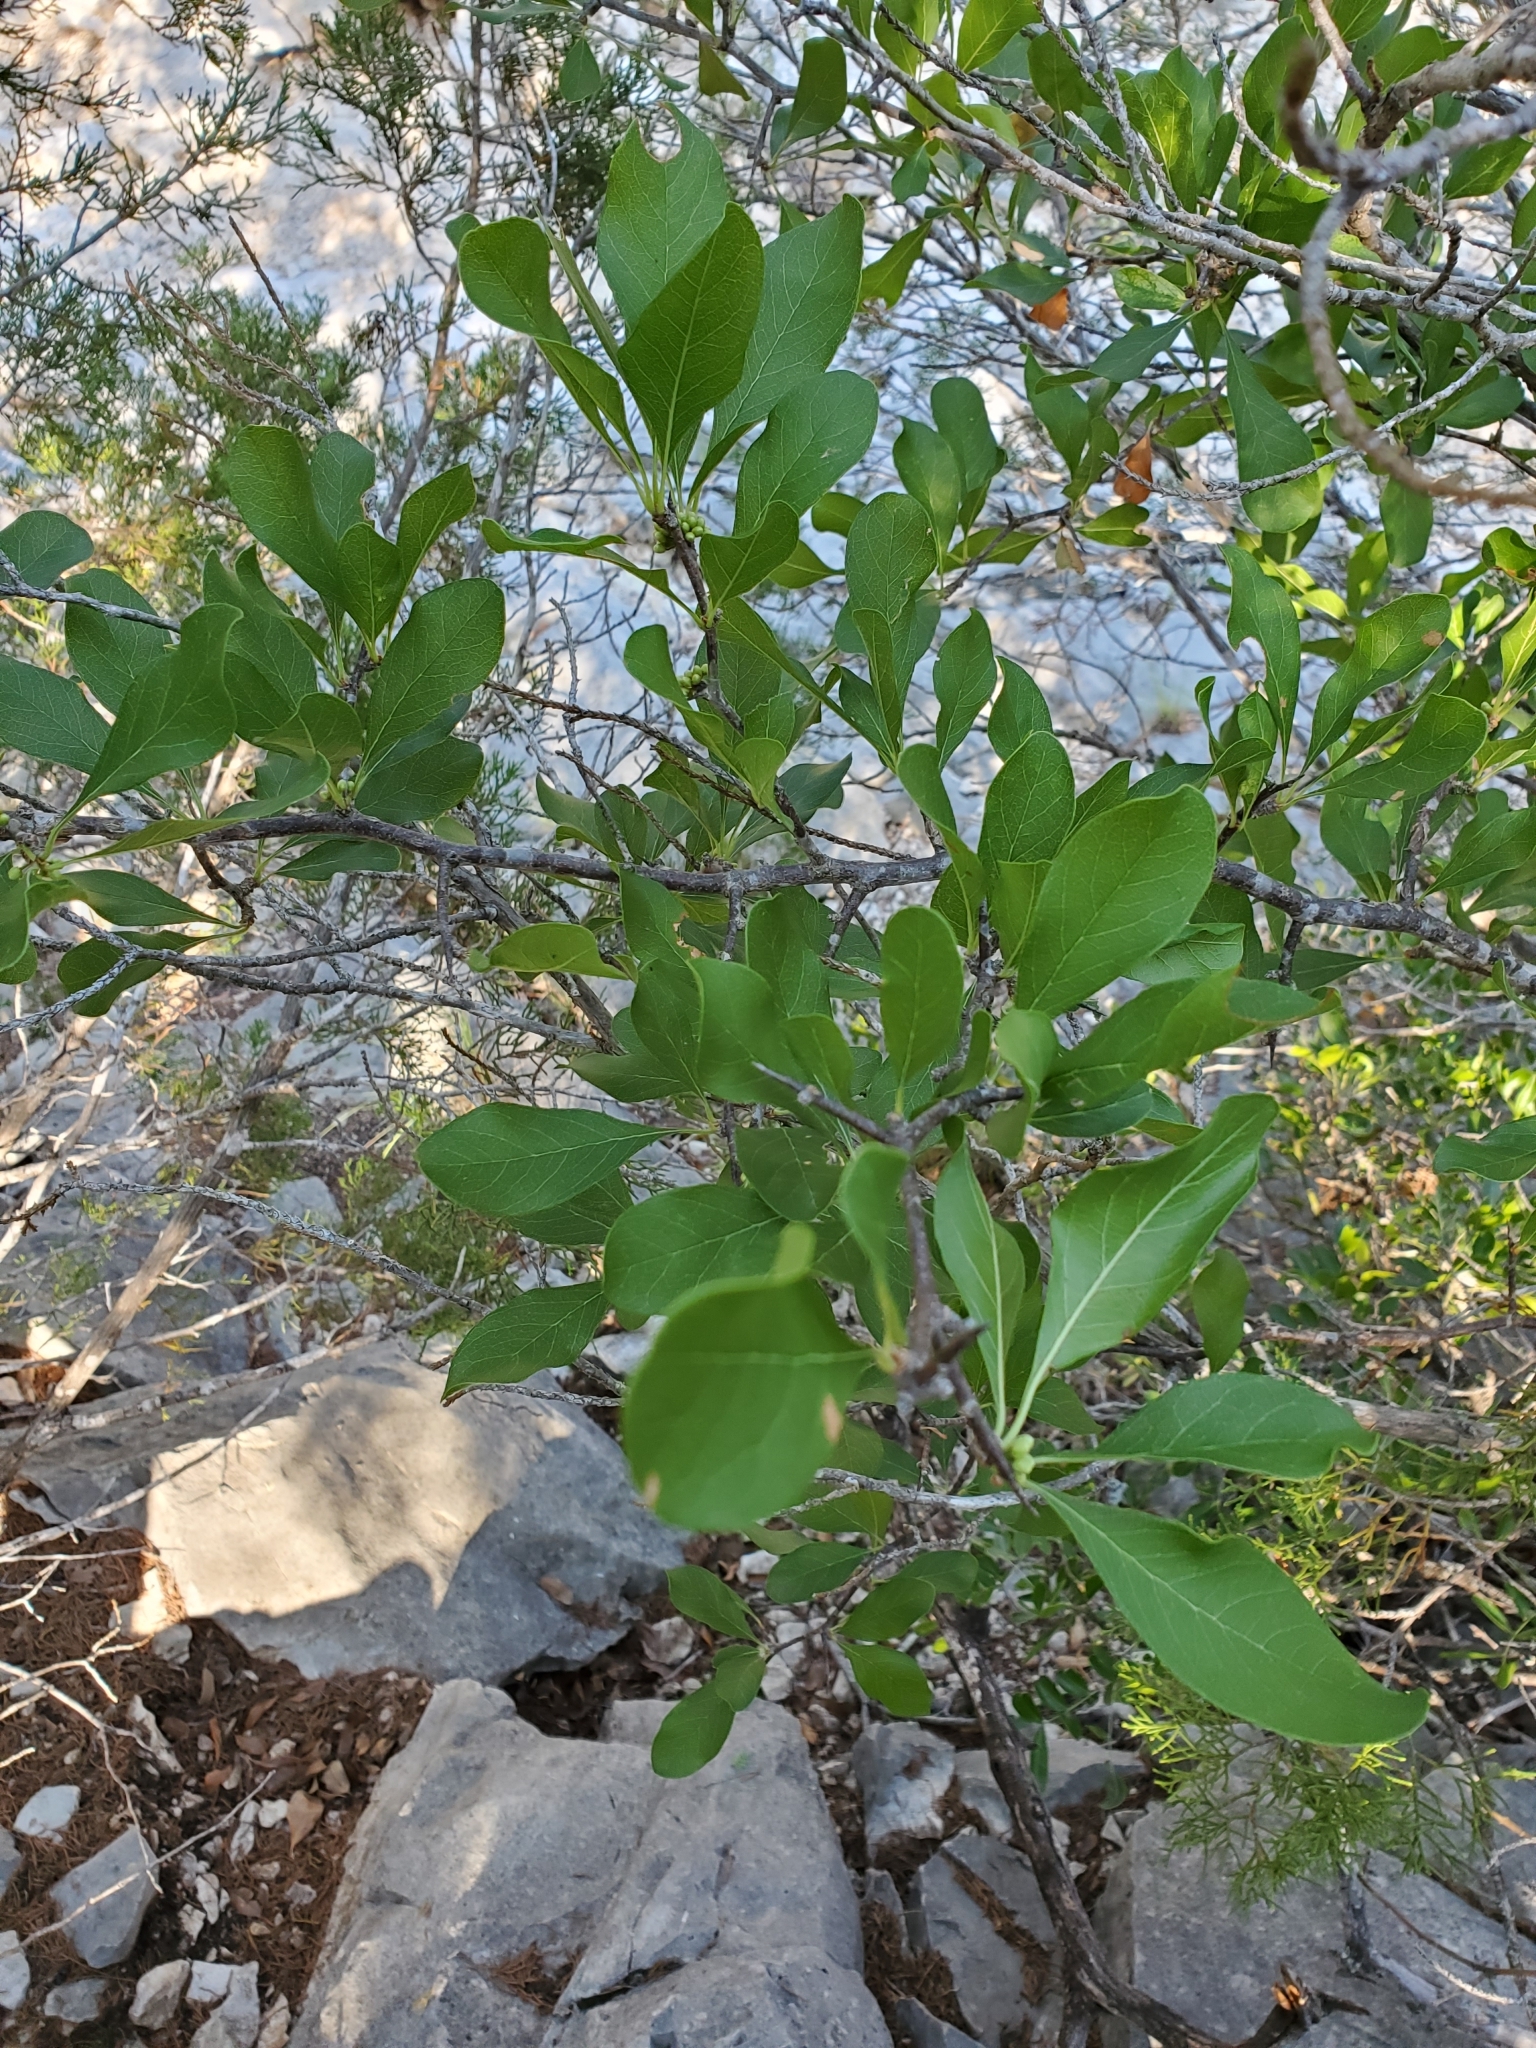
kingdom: Plantae
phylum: Tracheophyta
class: Magnoliopsida
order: Ericales
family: Sapotaceae
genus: Sideroxylon
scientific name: Sideroxylon lanuginosum
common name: Chittamwood
